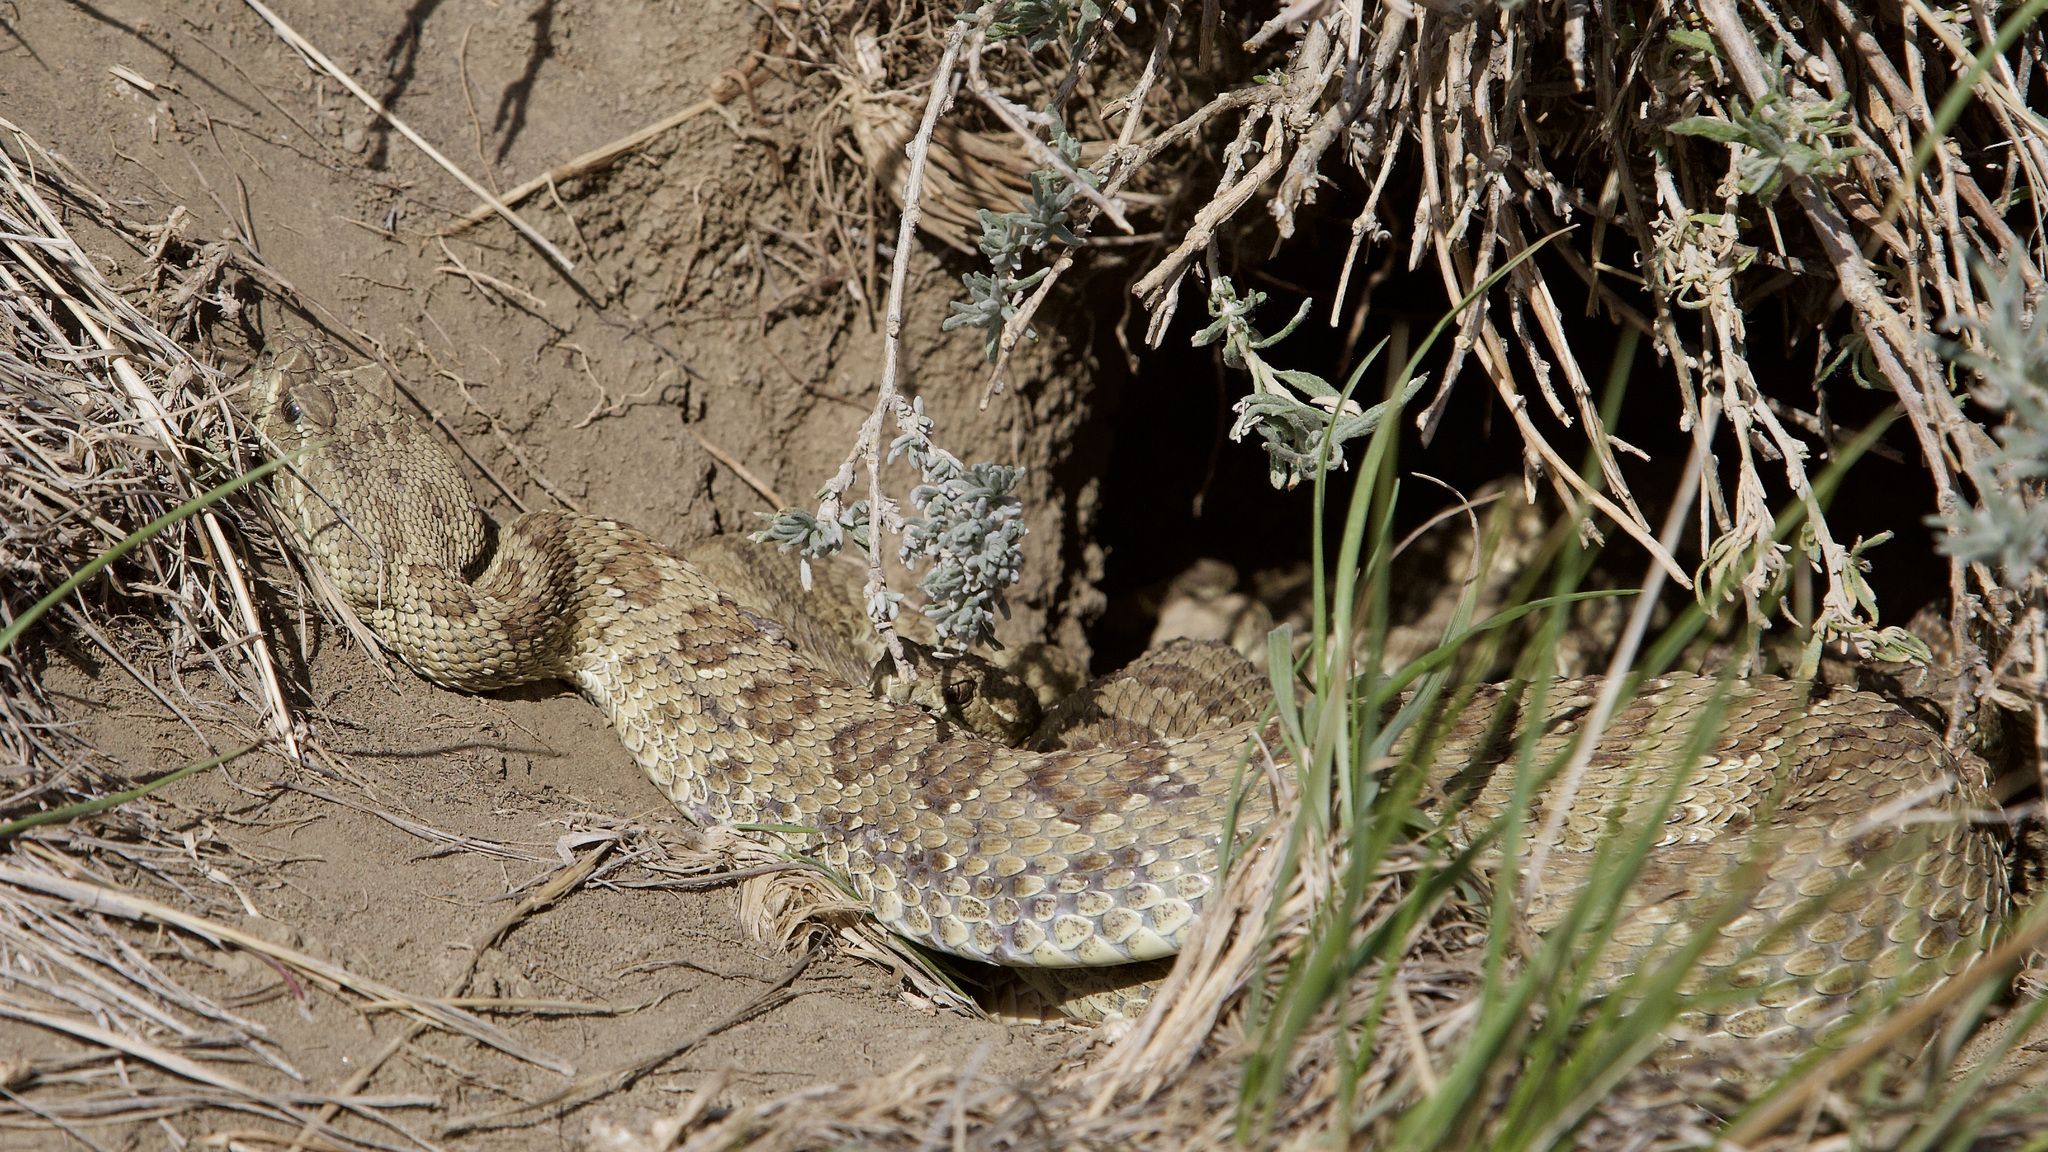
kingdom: Animalia
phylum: Chordata
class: Squamata
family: Viperidae
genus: Crotalus
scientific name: Crotalus viridis
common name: Prairie rattlesnake
